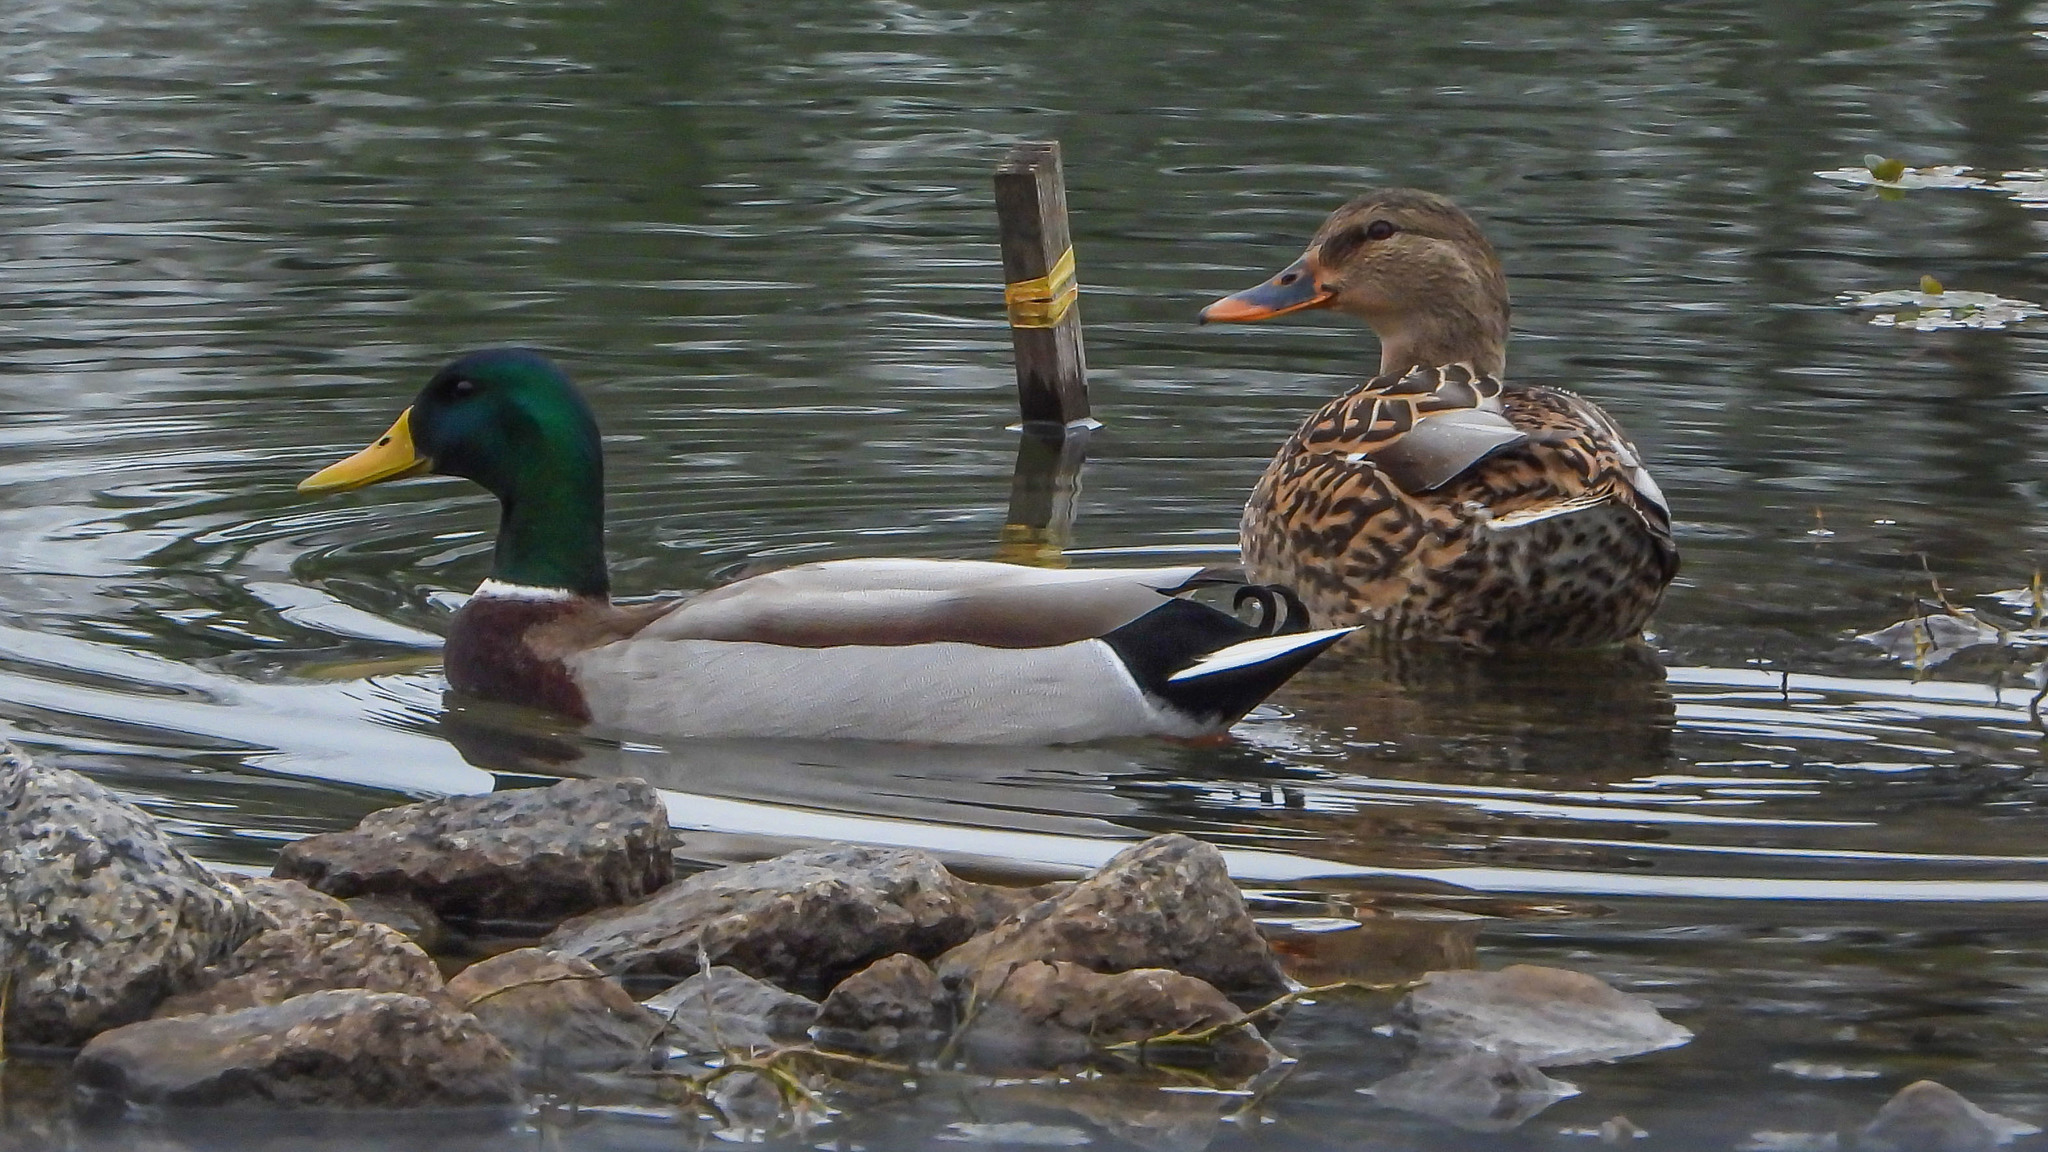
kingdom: Animalia
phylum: Chordata
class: Aves
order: Anseriformes
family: Anatidae
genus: Anas
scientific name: Anas platyrhynchos
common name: Mallard
